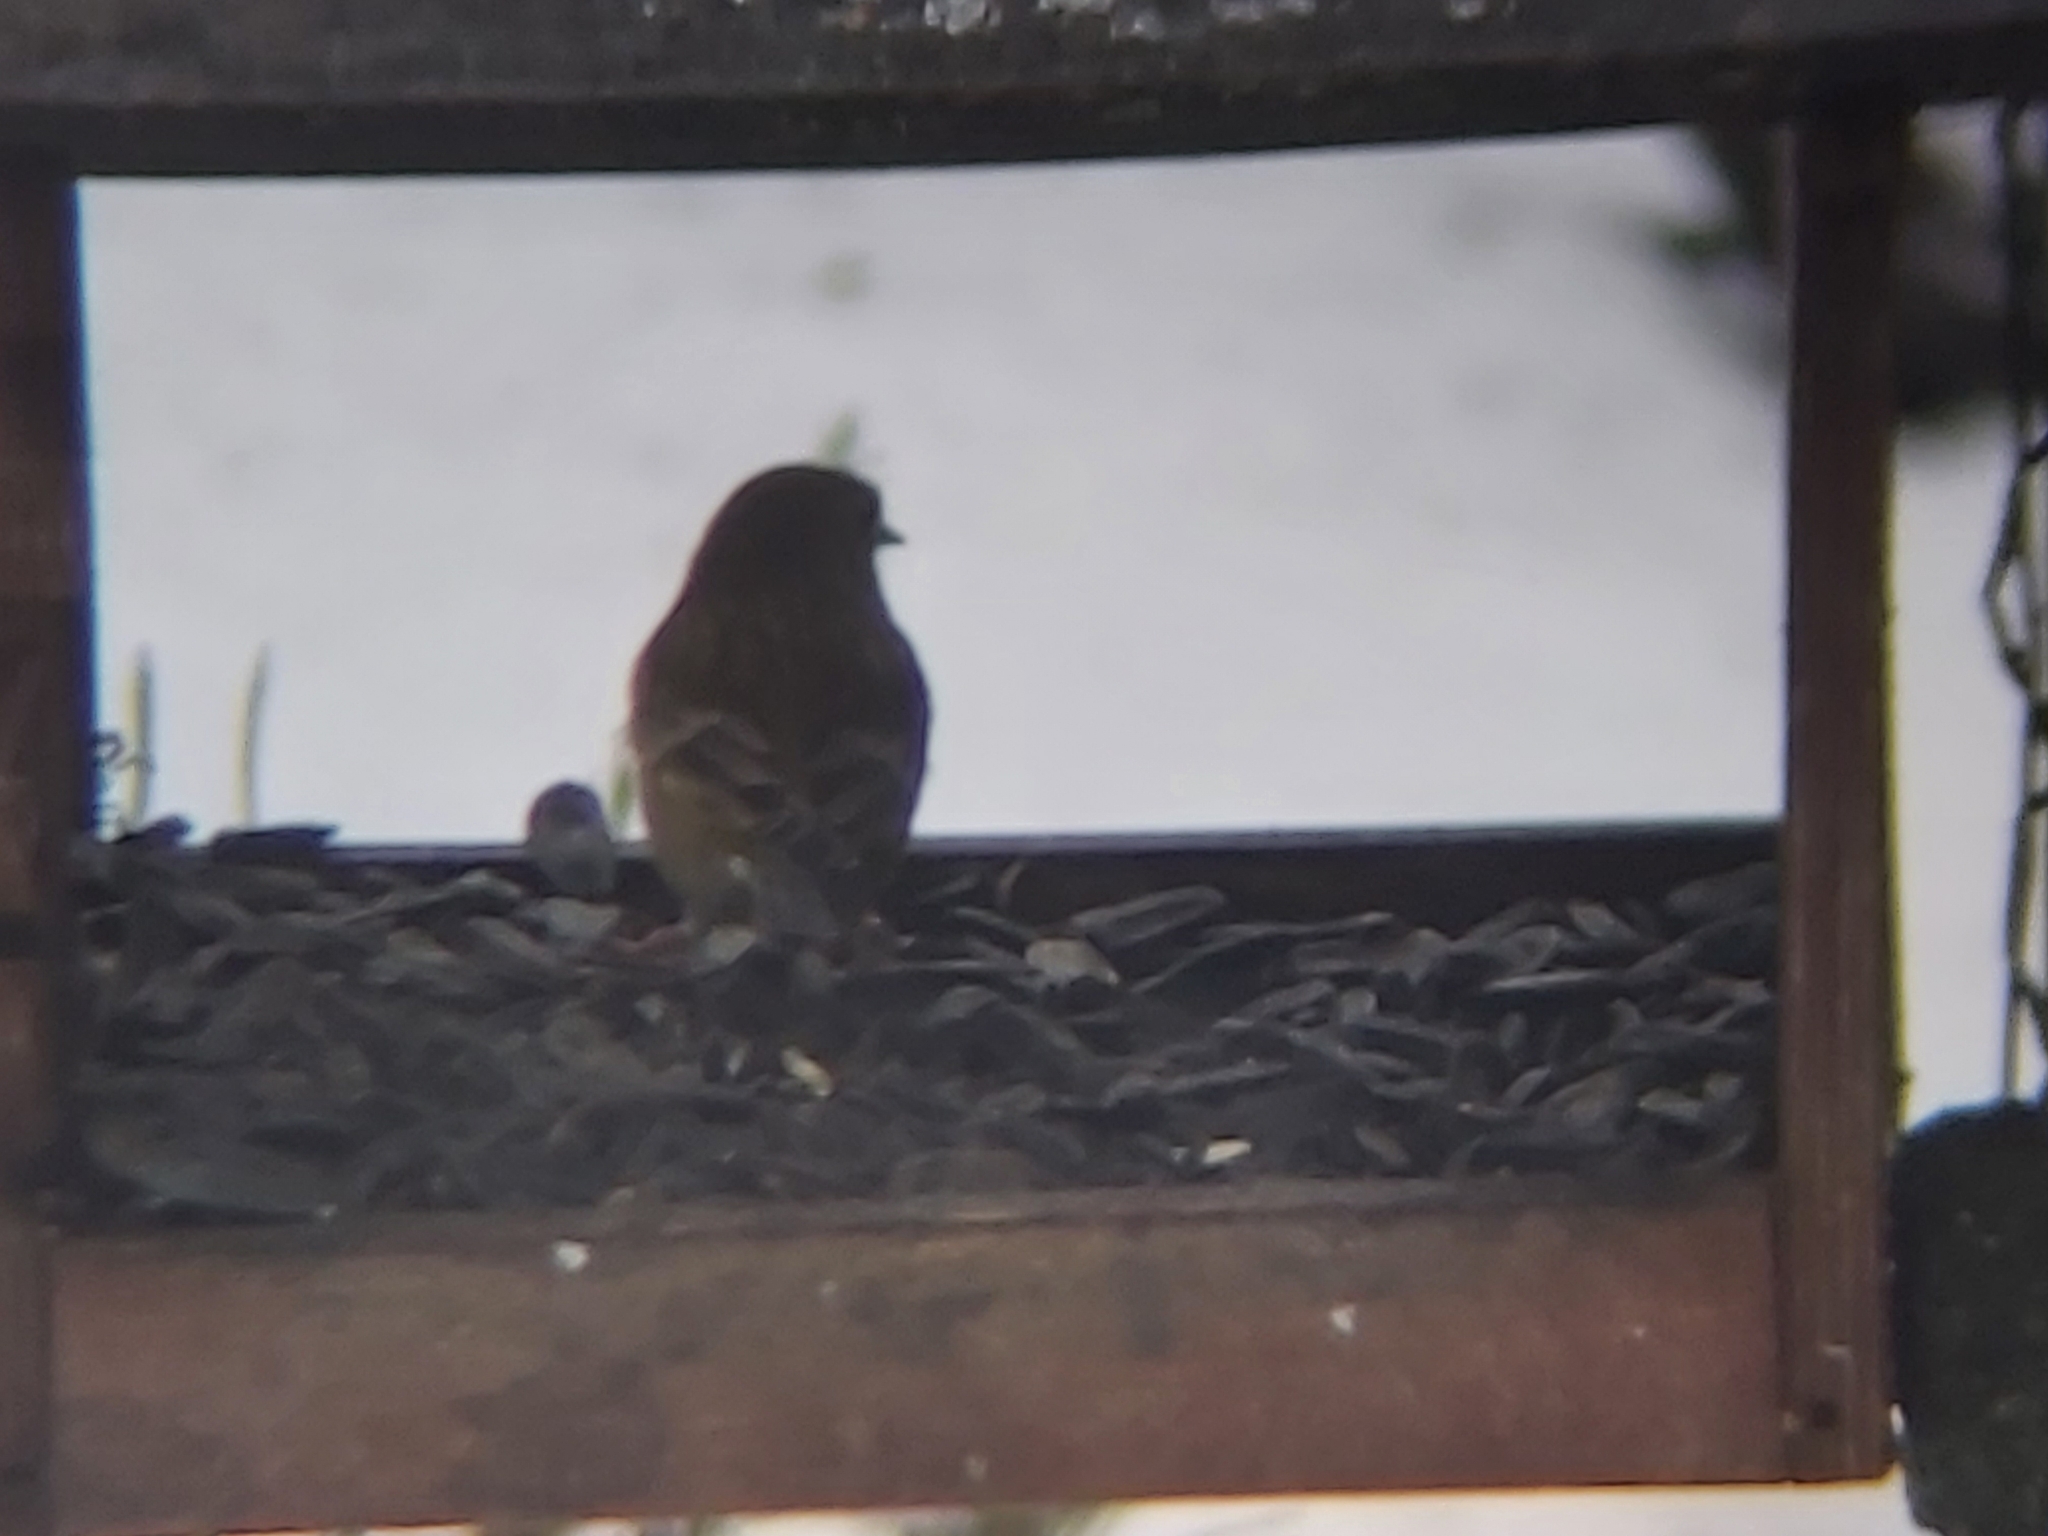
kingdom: Plantae
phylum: Tracheophyta
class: Liliopsida
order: Poales
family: Poaceae
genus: Chloris
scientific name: Chloris chloris
